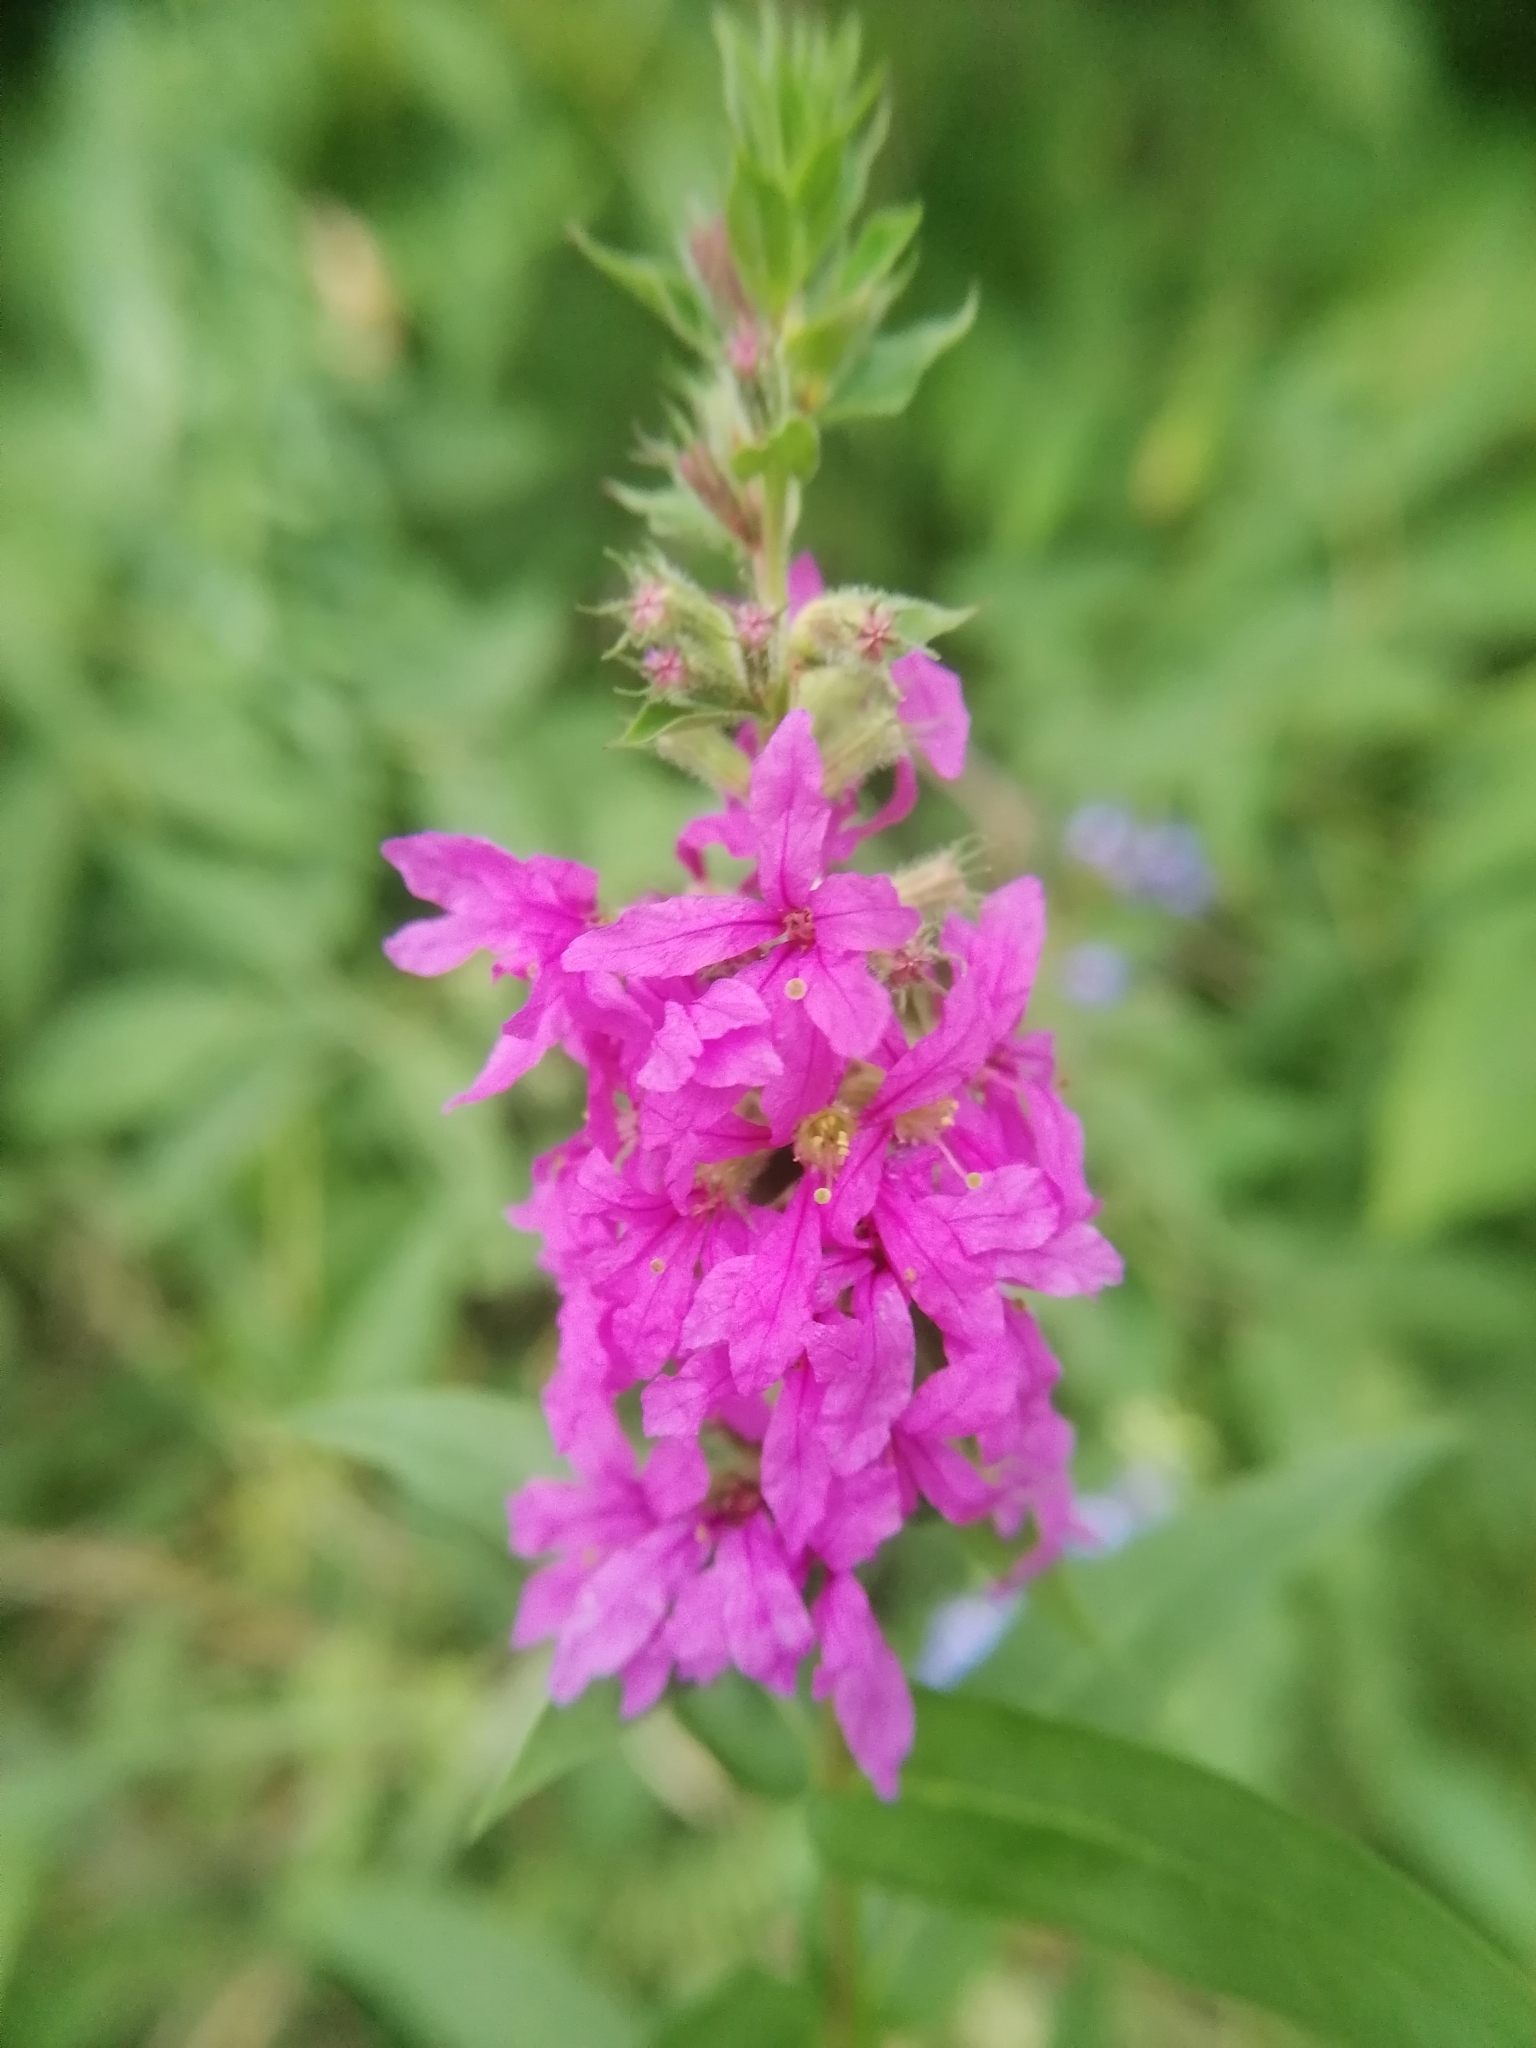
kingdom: Plantae
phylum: Tracheophyta
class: Magnoliopsida
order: Myrtales
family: Lythraceae
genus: Lythrum
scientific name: Lythrum salicaria
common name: Purple loosestrife
